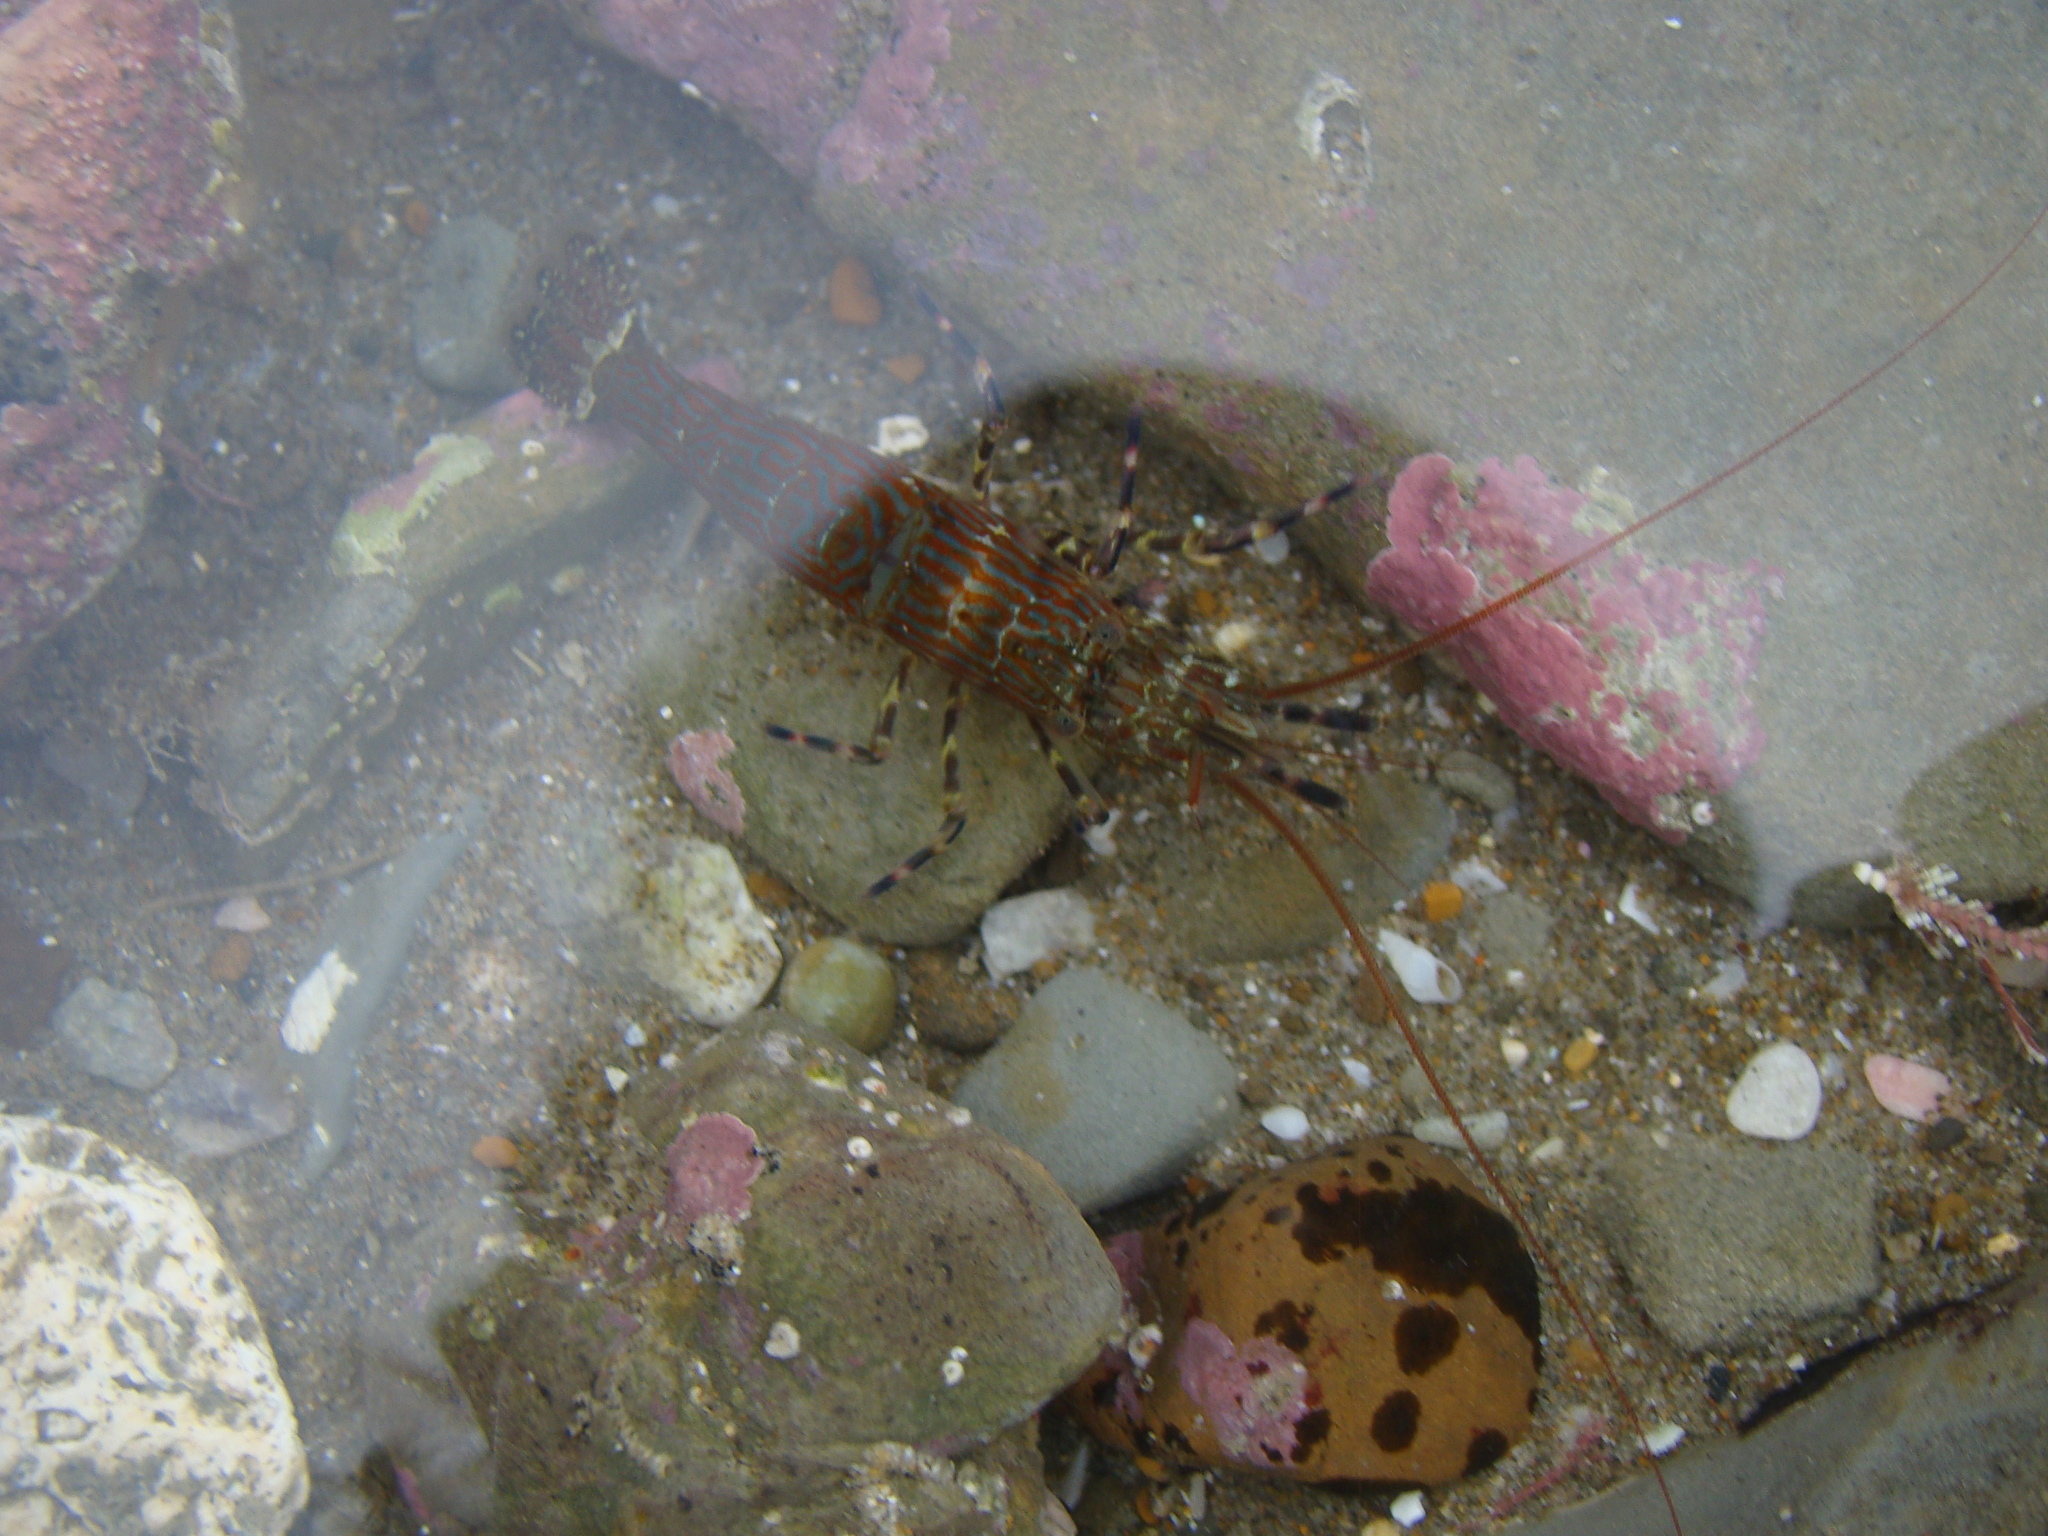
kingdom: Animalia
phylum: Arthropoda
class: Malacostraca
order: Decapoda
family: Hippolytidae
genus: Alope
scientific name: Alope spinifrons
